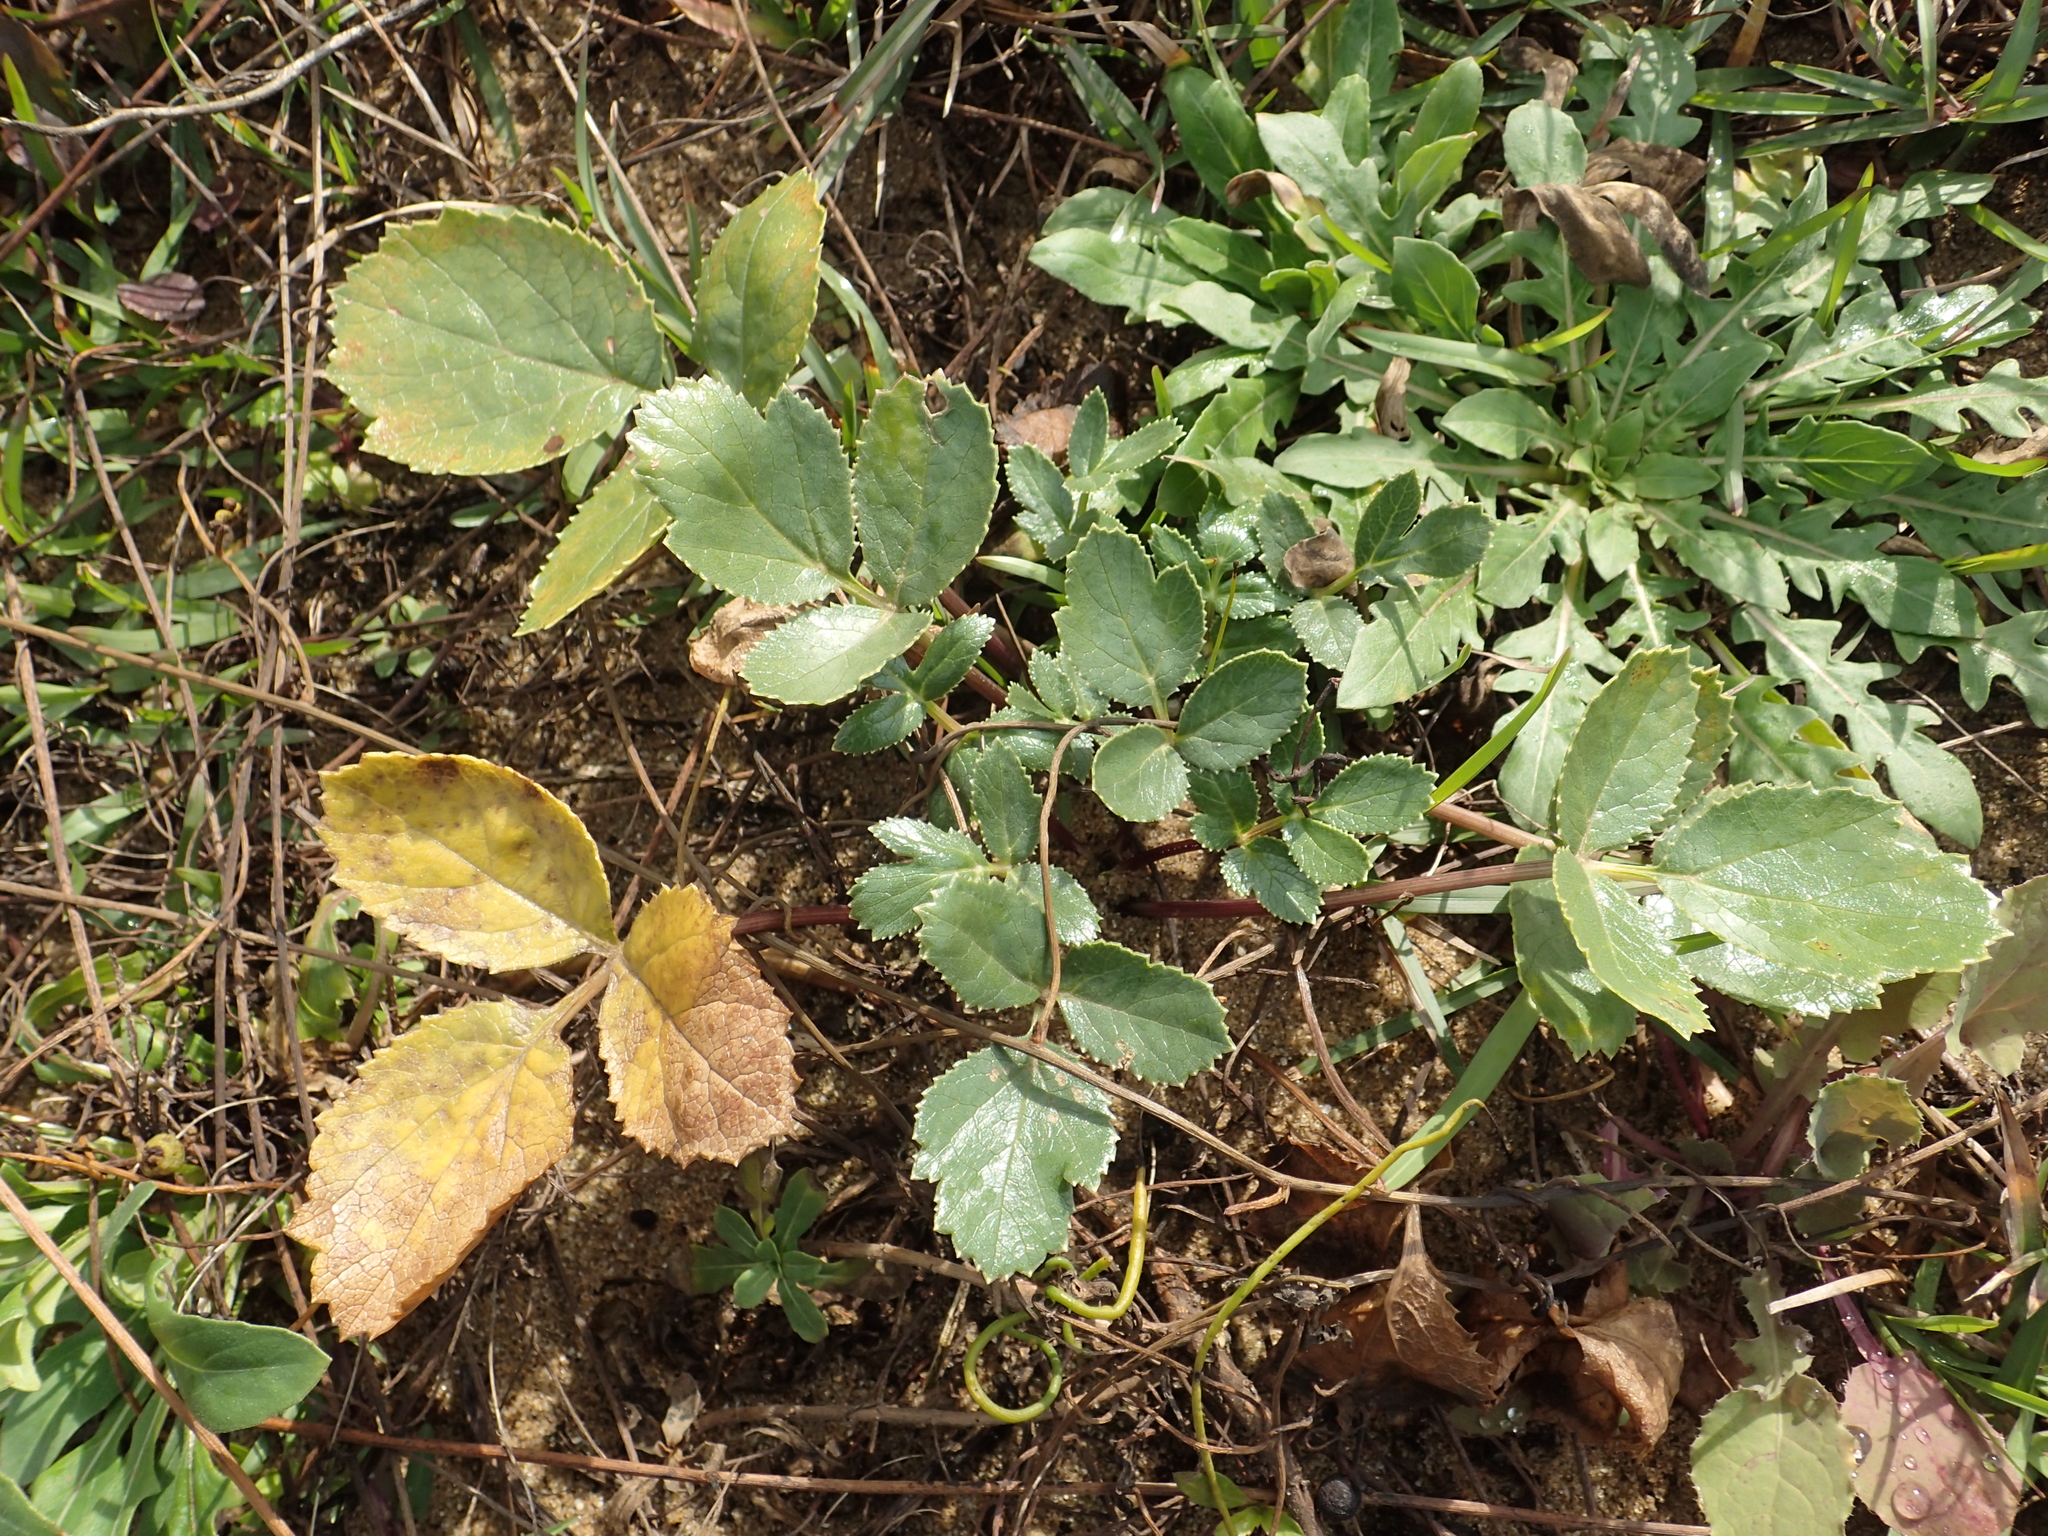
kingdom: Plantae
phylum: Tracheophyta
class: Magnoliopsida
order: Apiales
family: Apiaceae
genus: Glehnia
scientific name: Glehnia littoralis
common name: Beach silvertop
